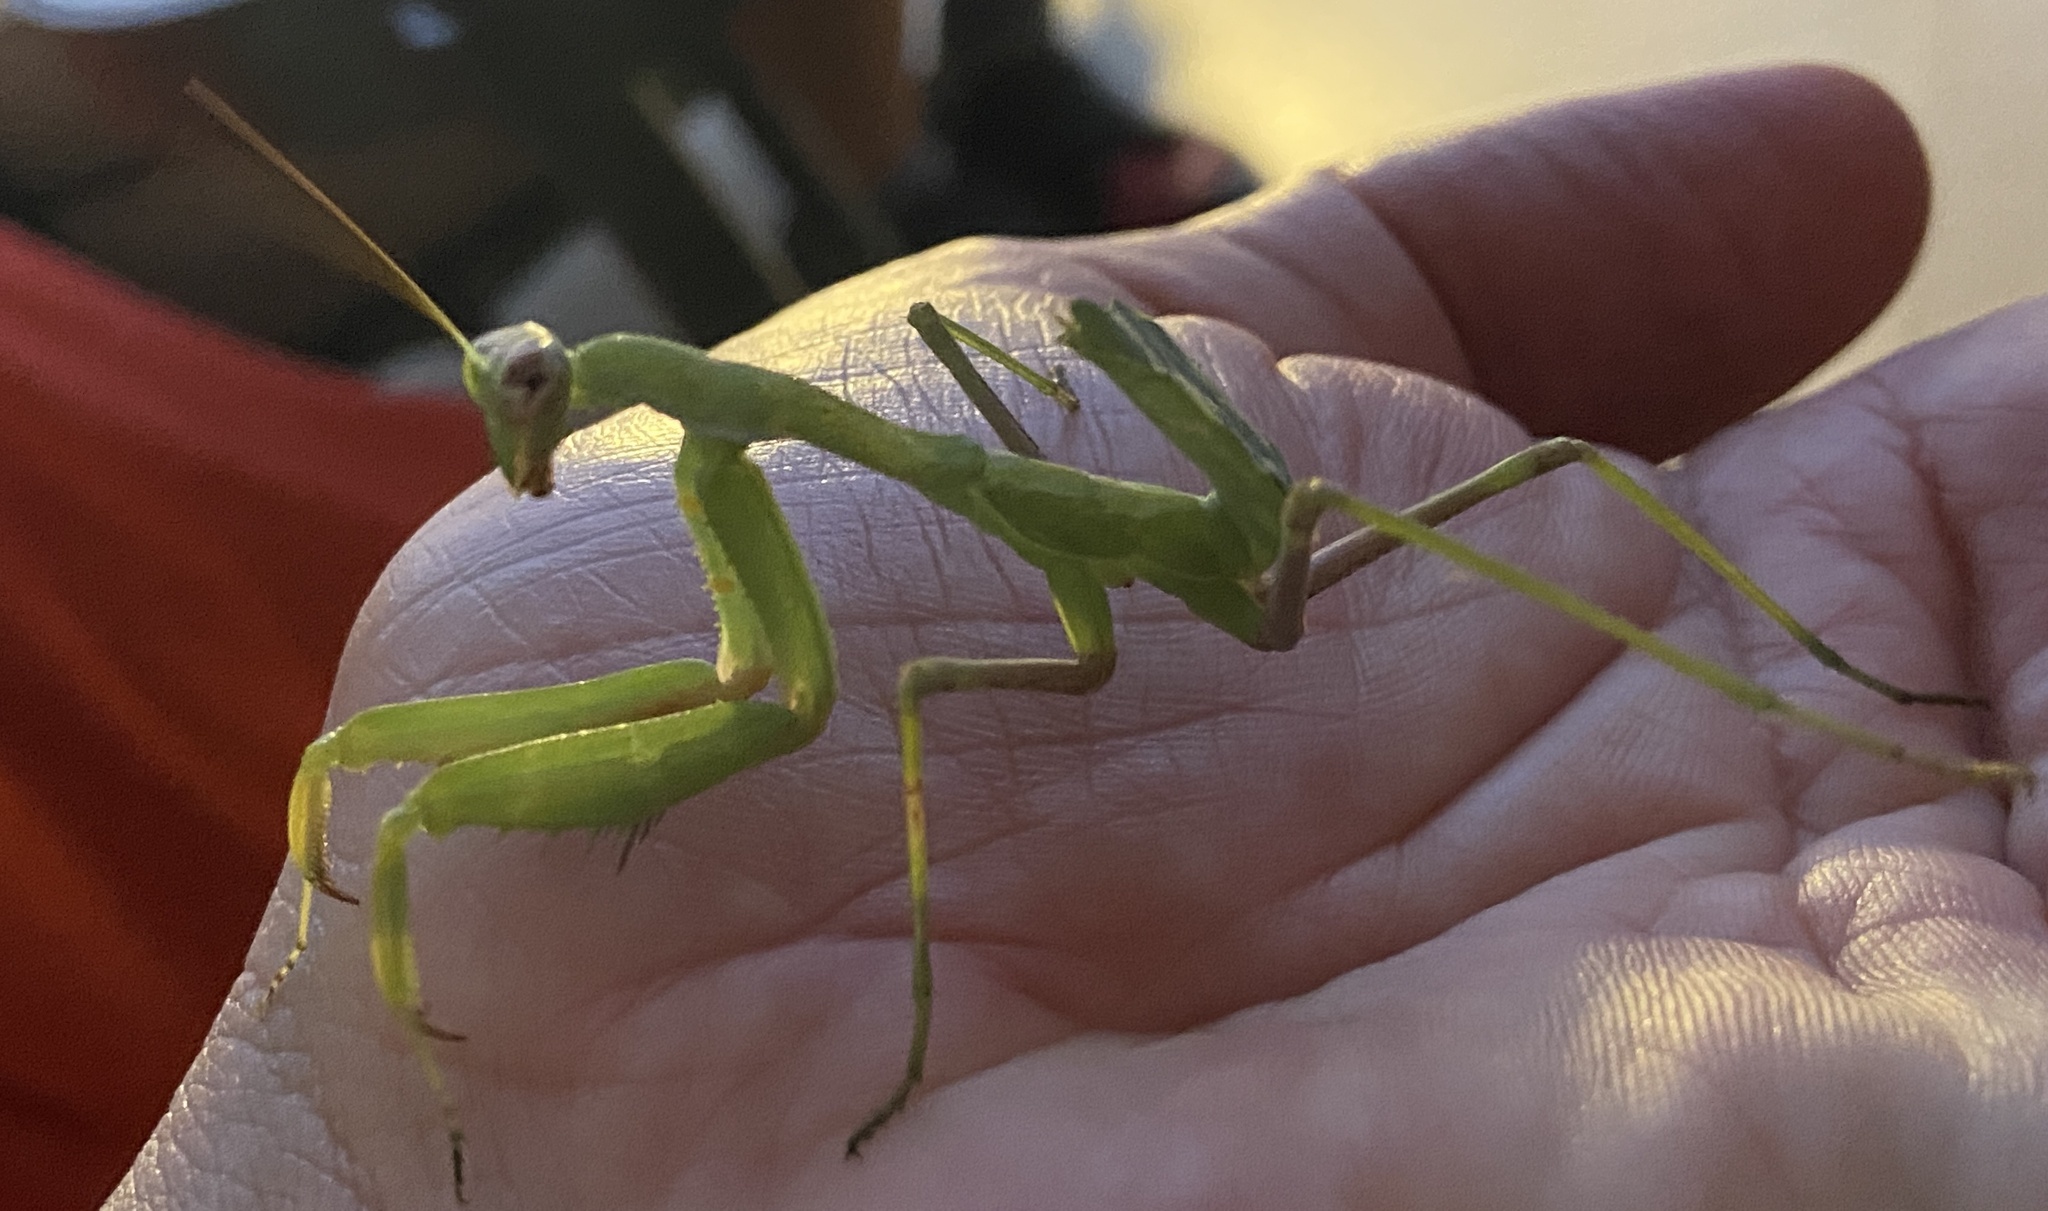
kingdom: Animalia
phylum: Arthropoda
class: Insecta
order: Mantodea
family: Mantidae
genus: Sphodromantis
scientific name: Sphodromantis viridis
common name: Giant african mantis
